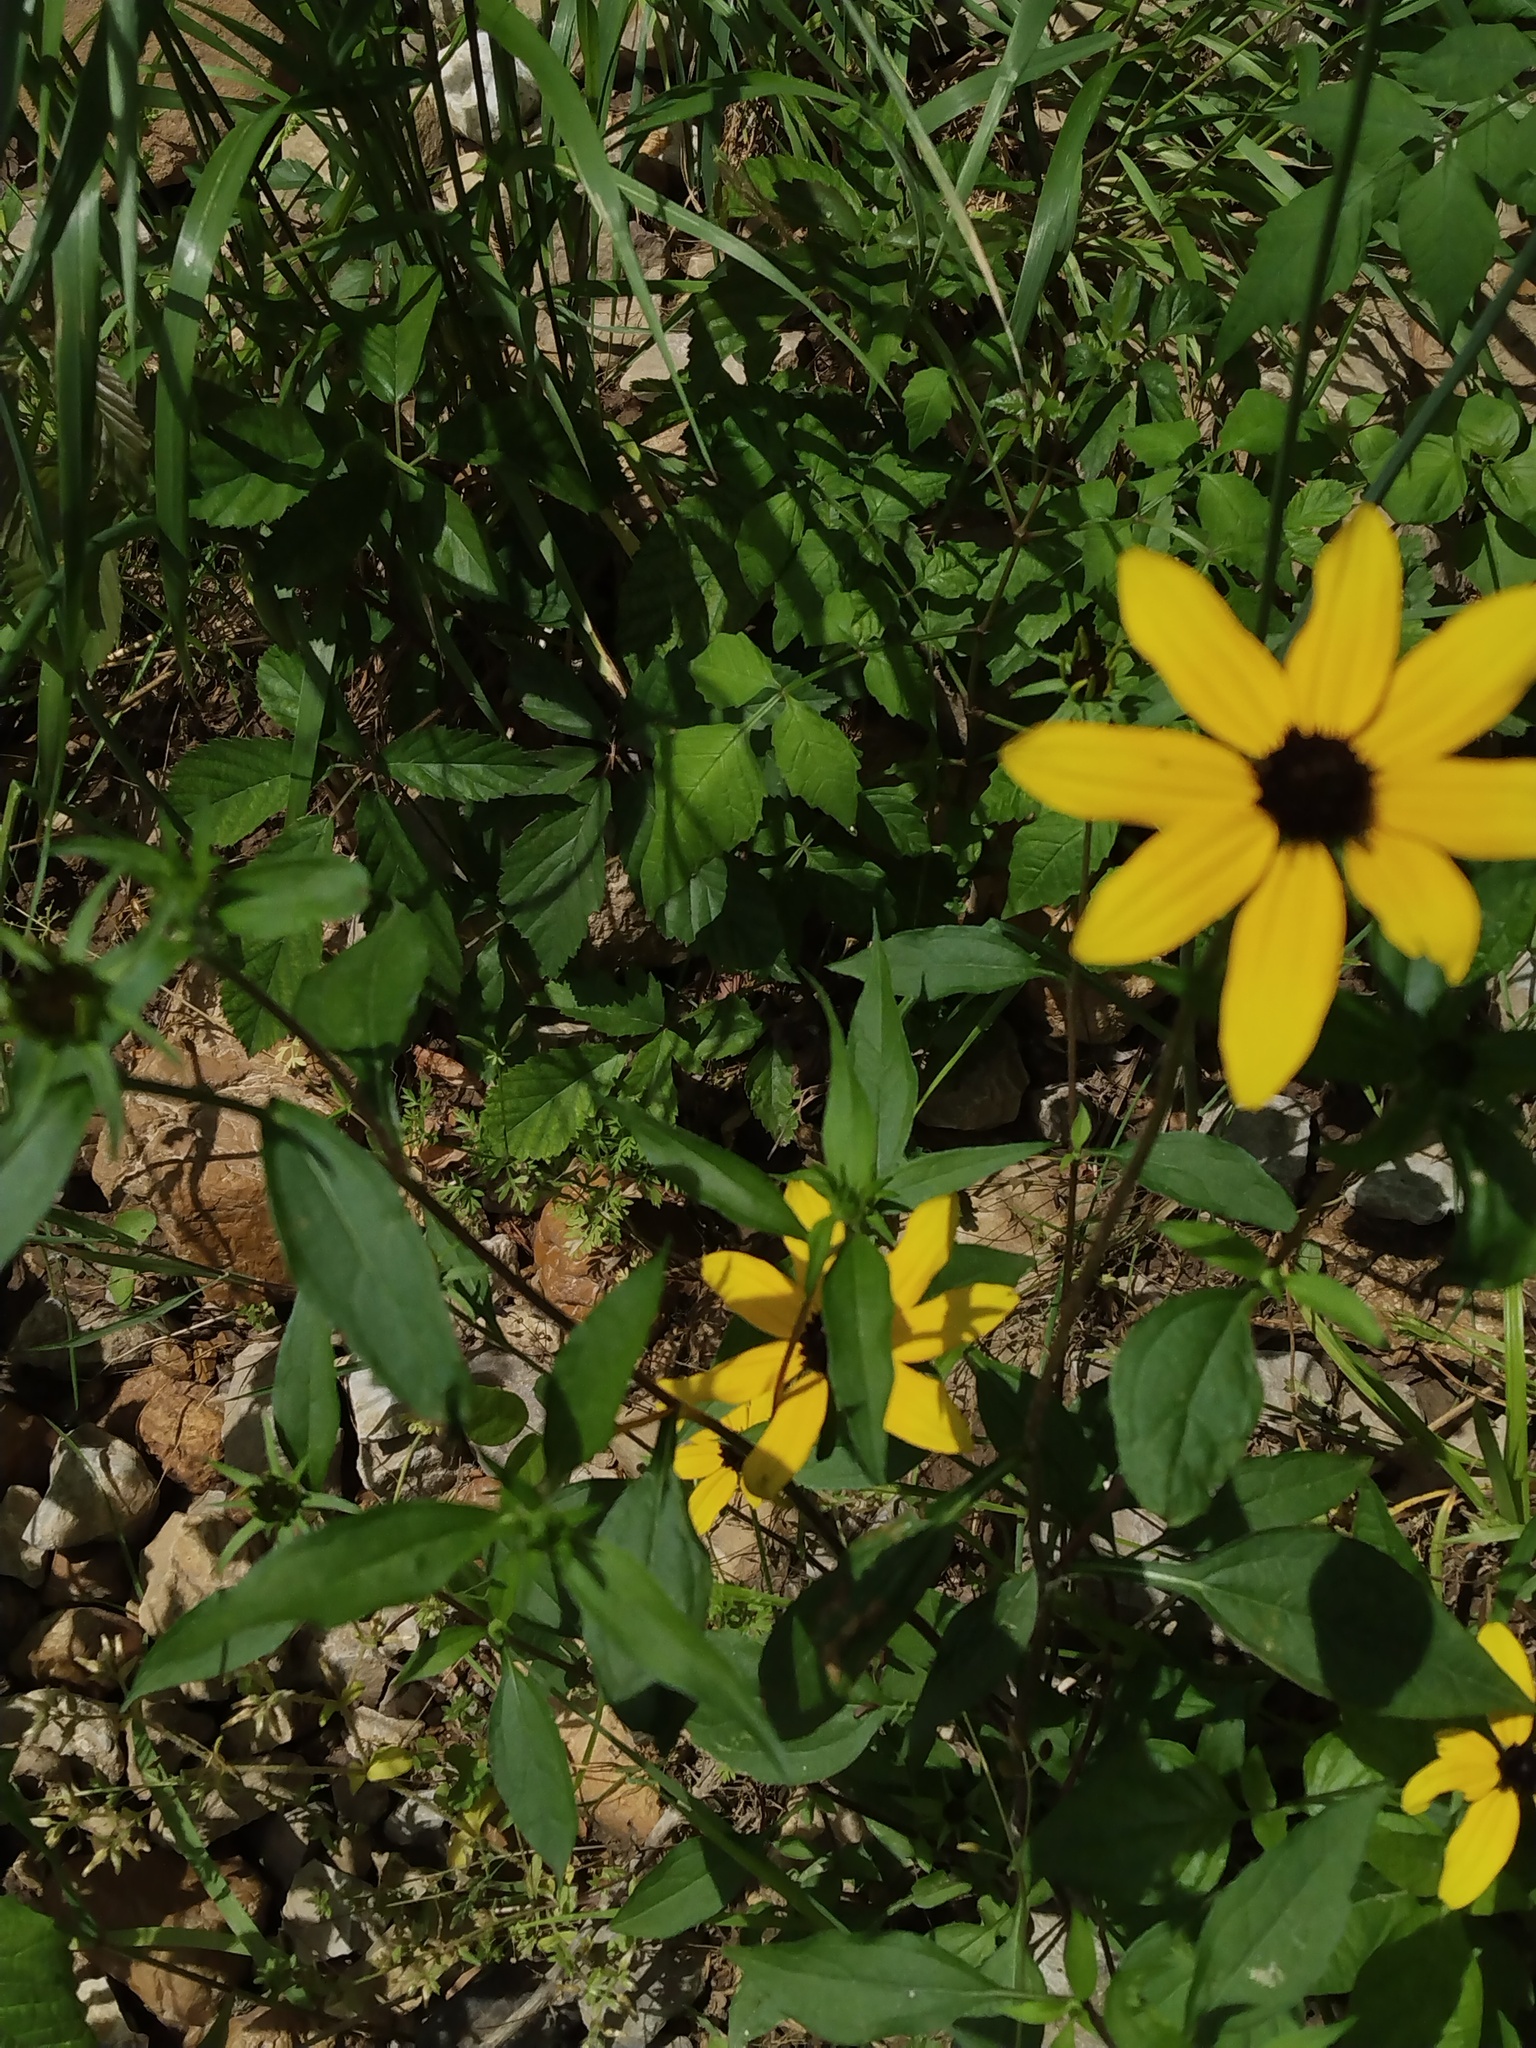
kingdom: Plantae
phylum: Tracheophyta
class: Magnoliopsida
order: Asterales
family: Asteraceae
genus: Rudbeckia
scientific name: Rudbeckia triloba
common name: Thin-leaved coneflower
